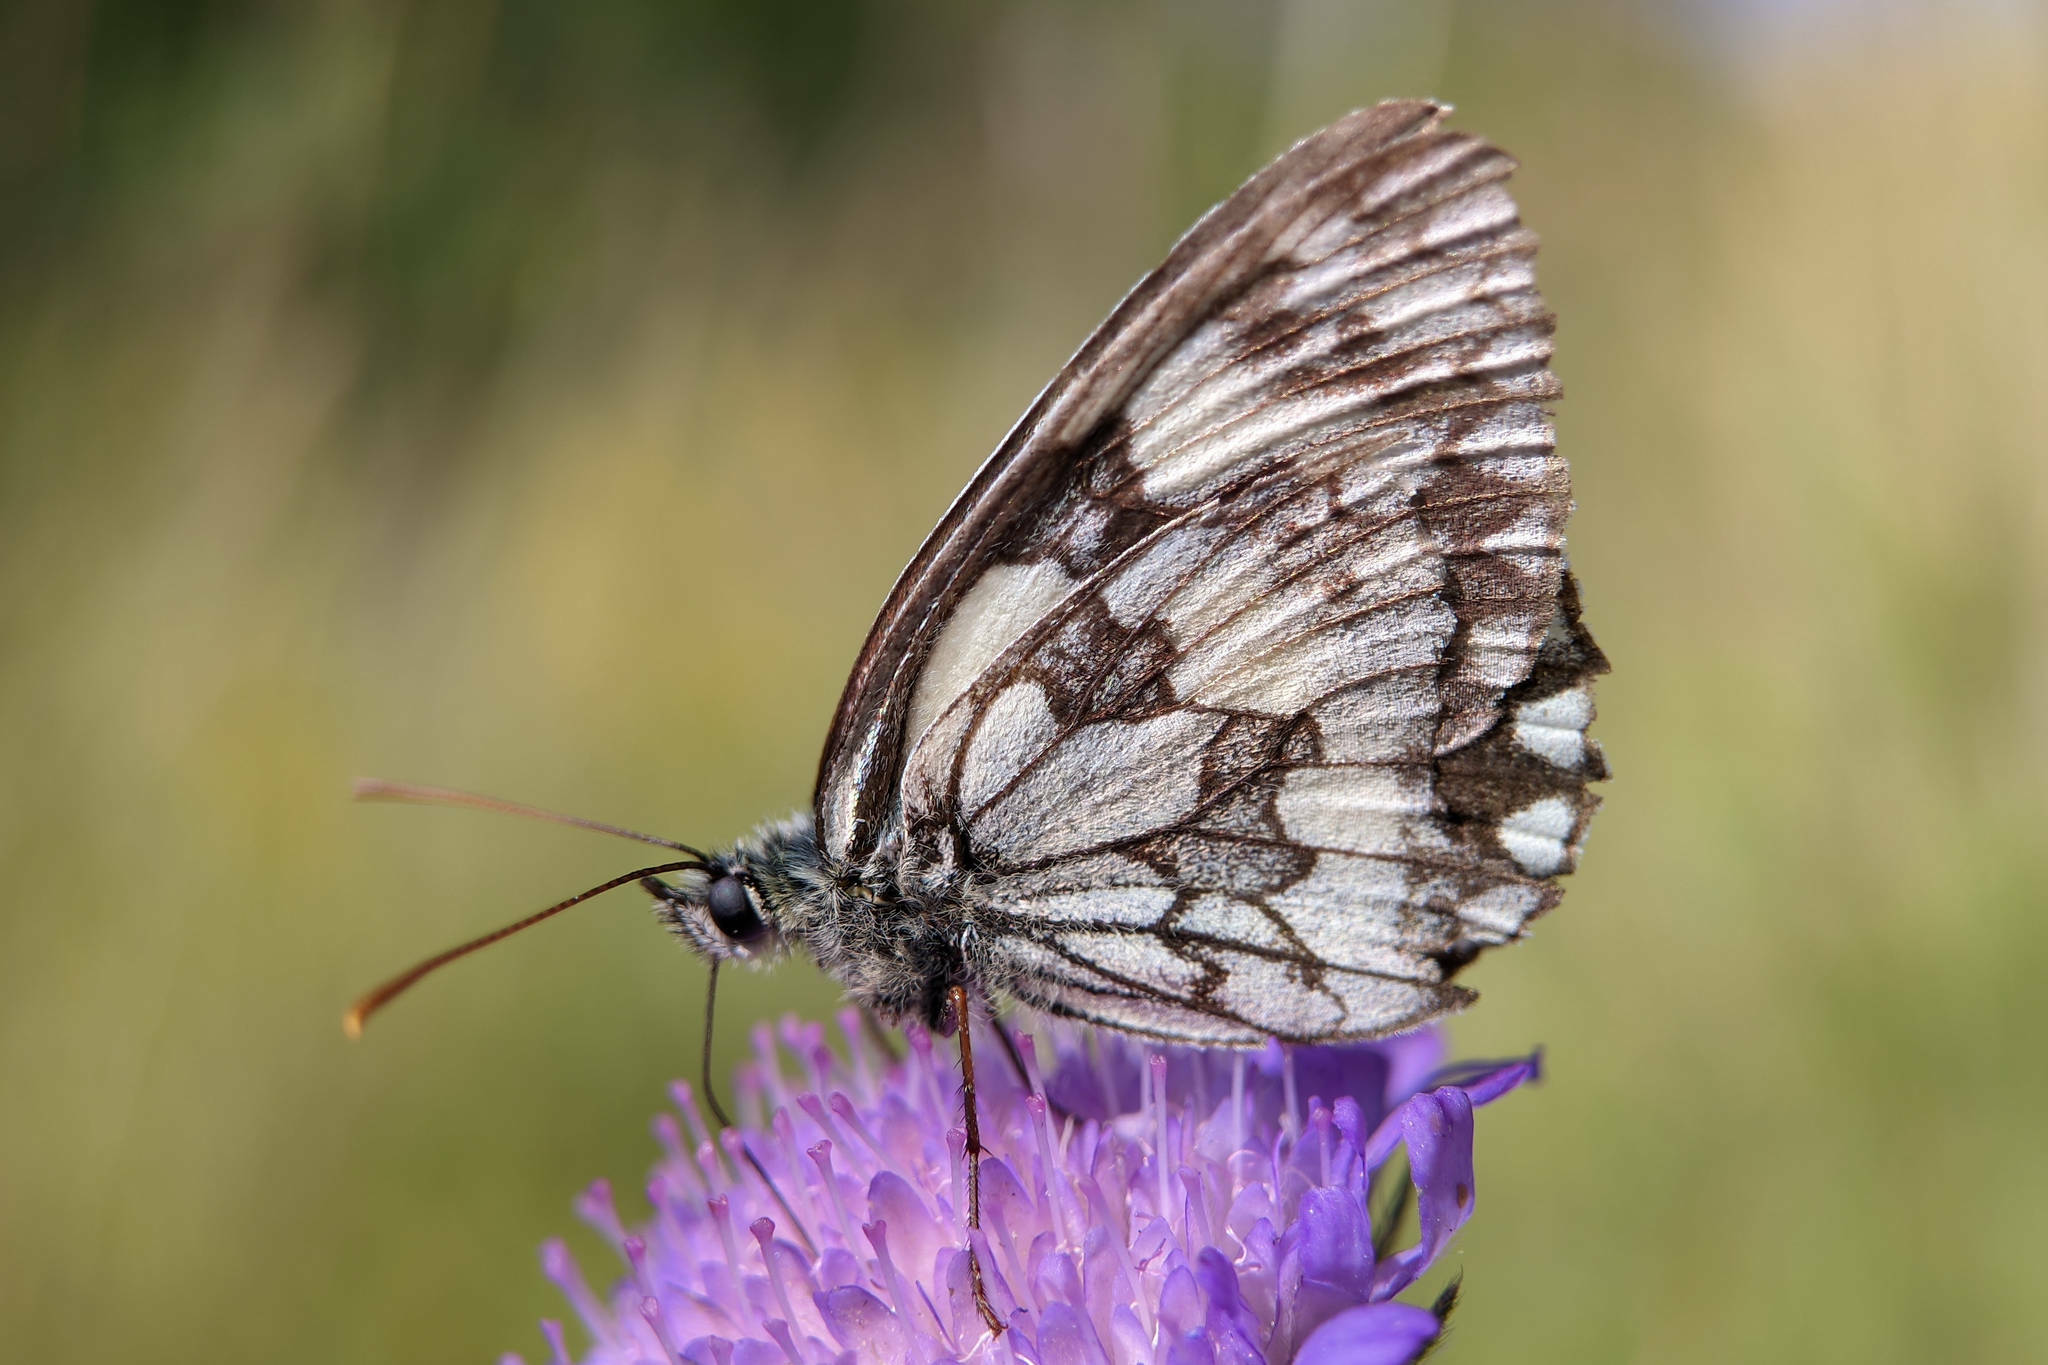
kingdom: Animalia
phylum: Arthropoda
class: Insecta
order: Lepidoptera
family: Nymphalidae
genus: Melanargia
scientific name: Melanargia galathea
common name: Marbled white
